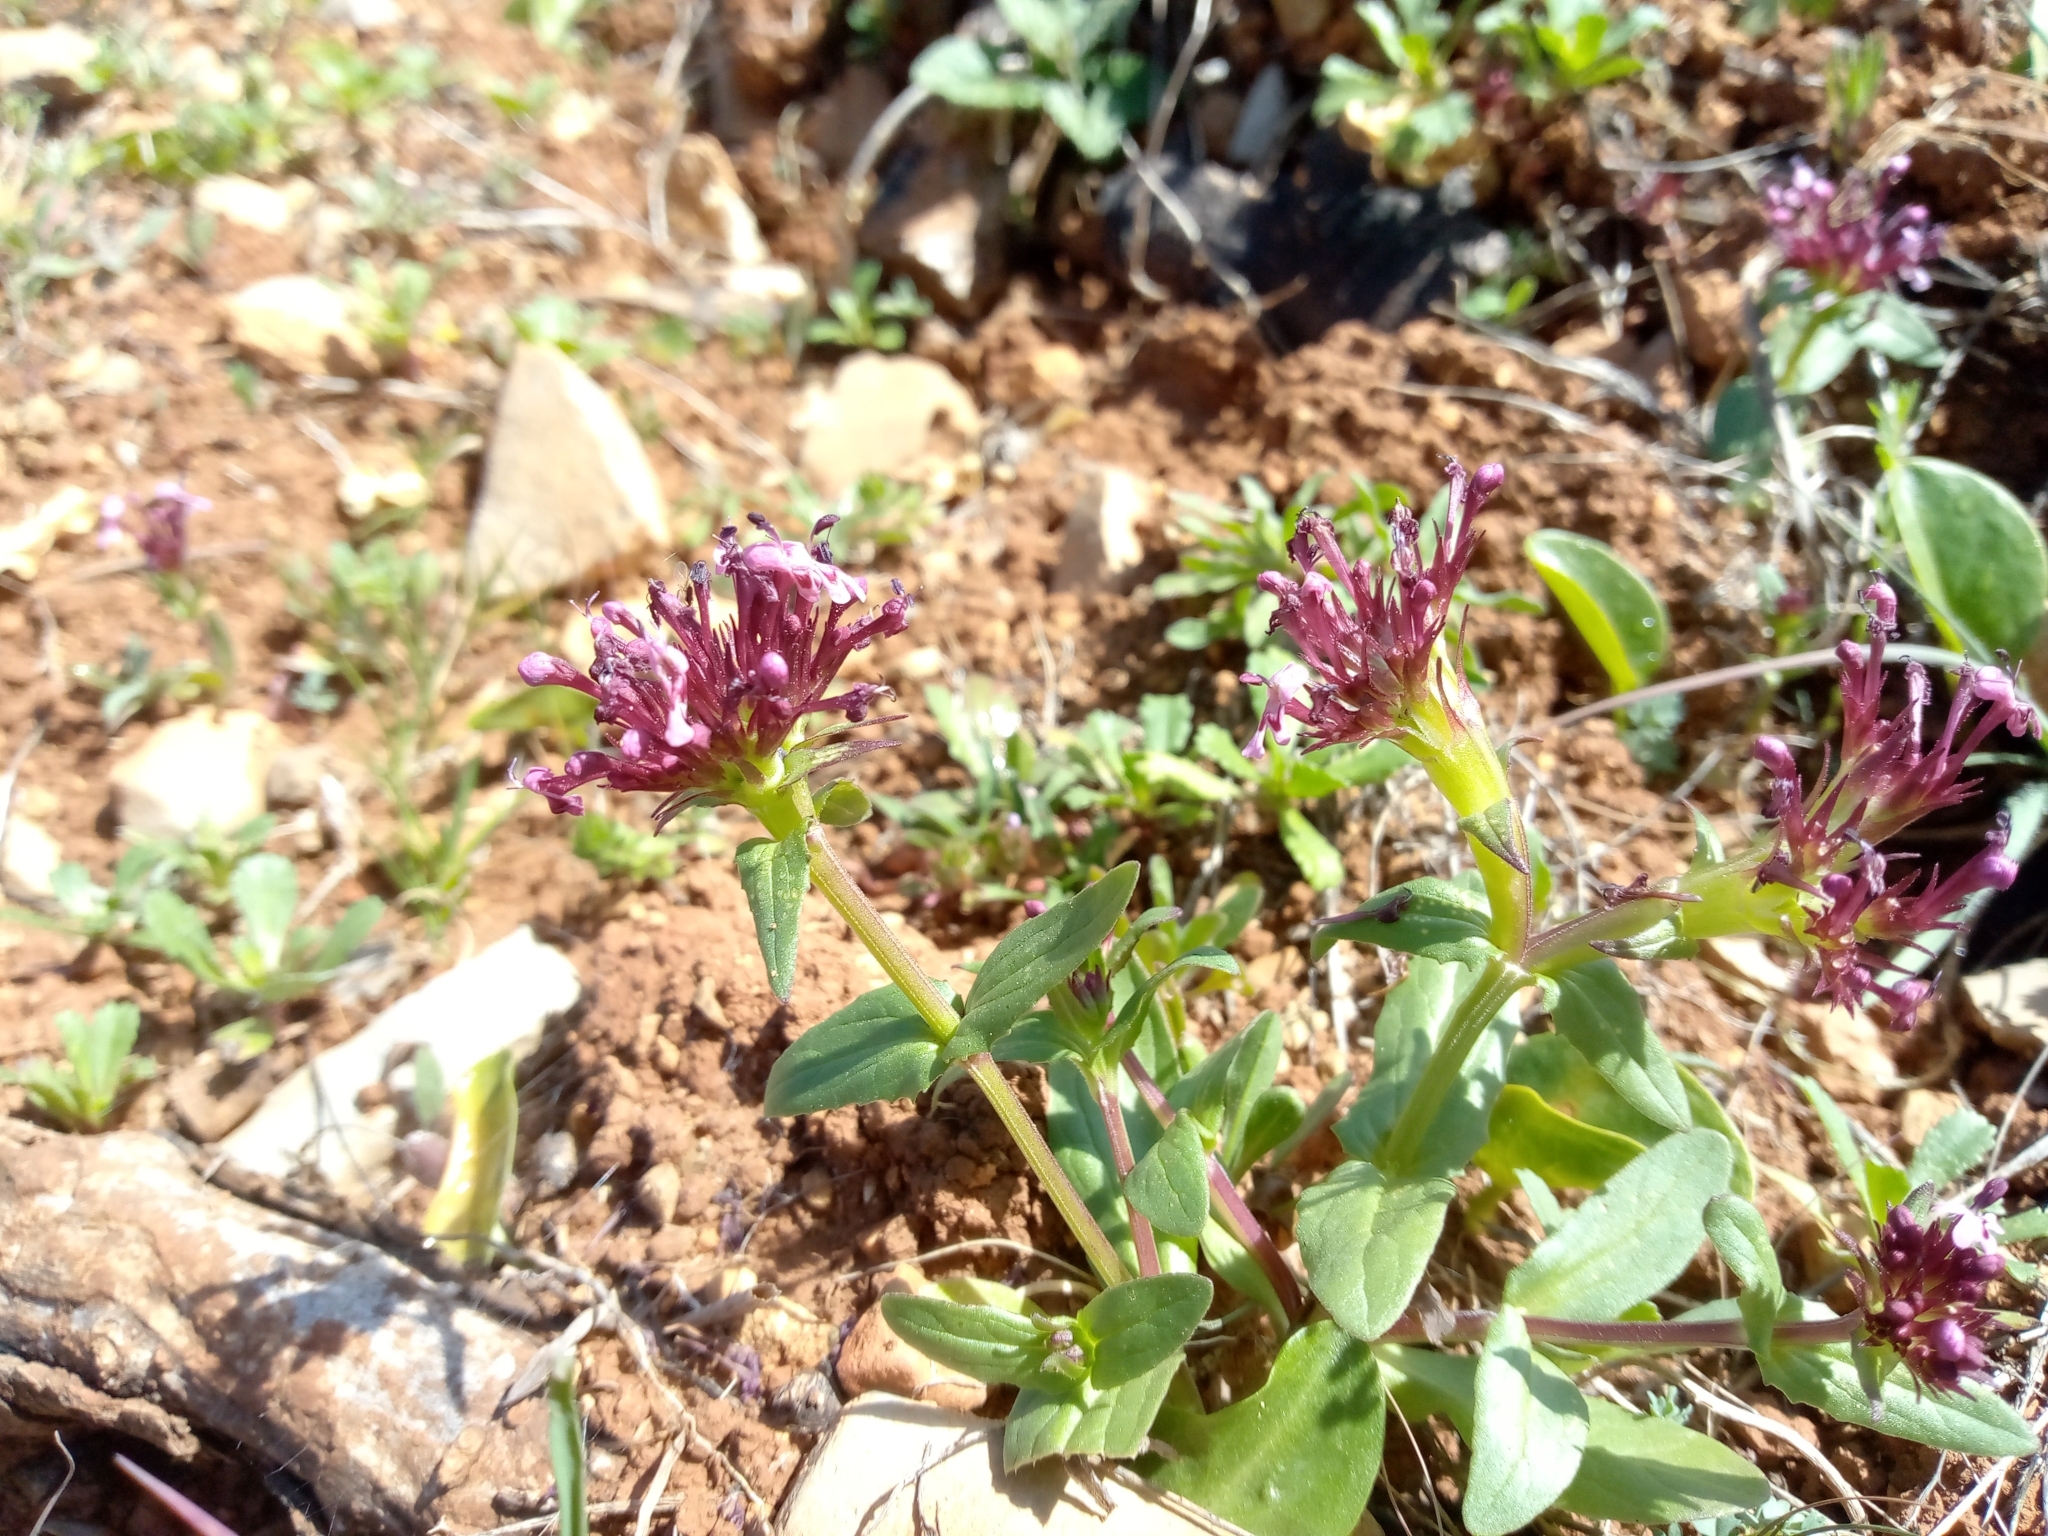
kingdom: Plantae
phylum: Tracheophyta
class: Magnoliopsida
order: Dipsacales
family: Caprifoliaceae
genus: Fedia
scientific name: Fedia cornucopiae
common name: Horn-of-plenty
